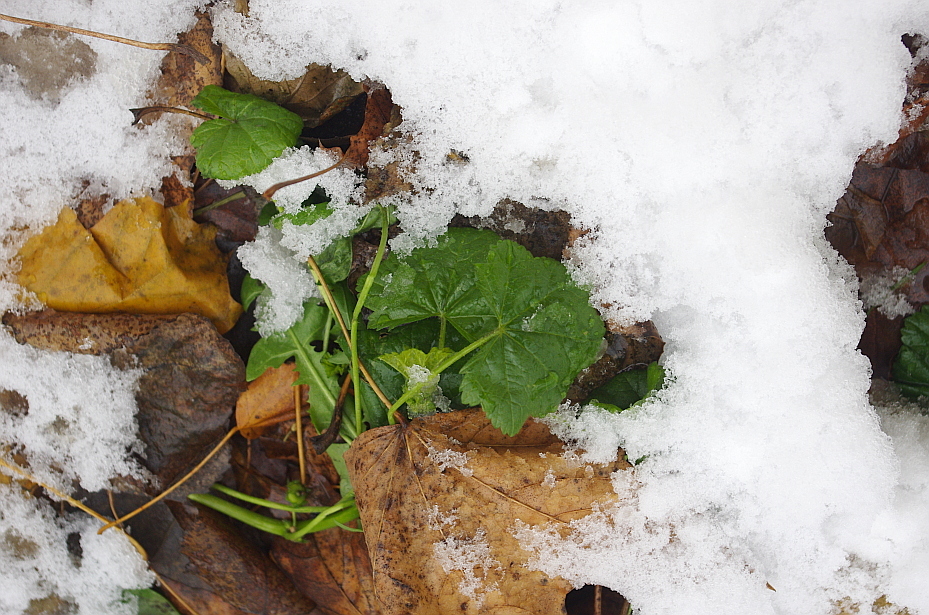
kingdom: Plantae
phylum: Tracheophyta
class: Magnoliopsida
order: Malvales
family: Malvaceae
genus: Malva
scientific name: Malva pusilla
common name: Small mallow
